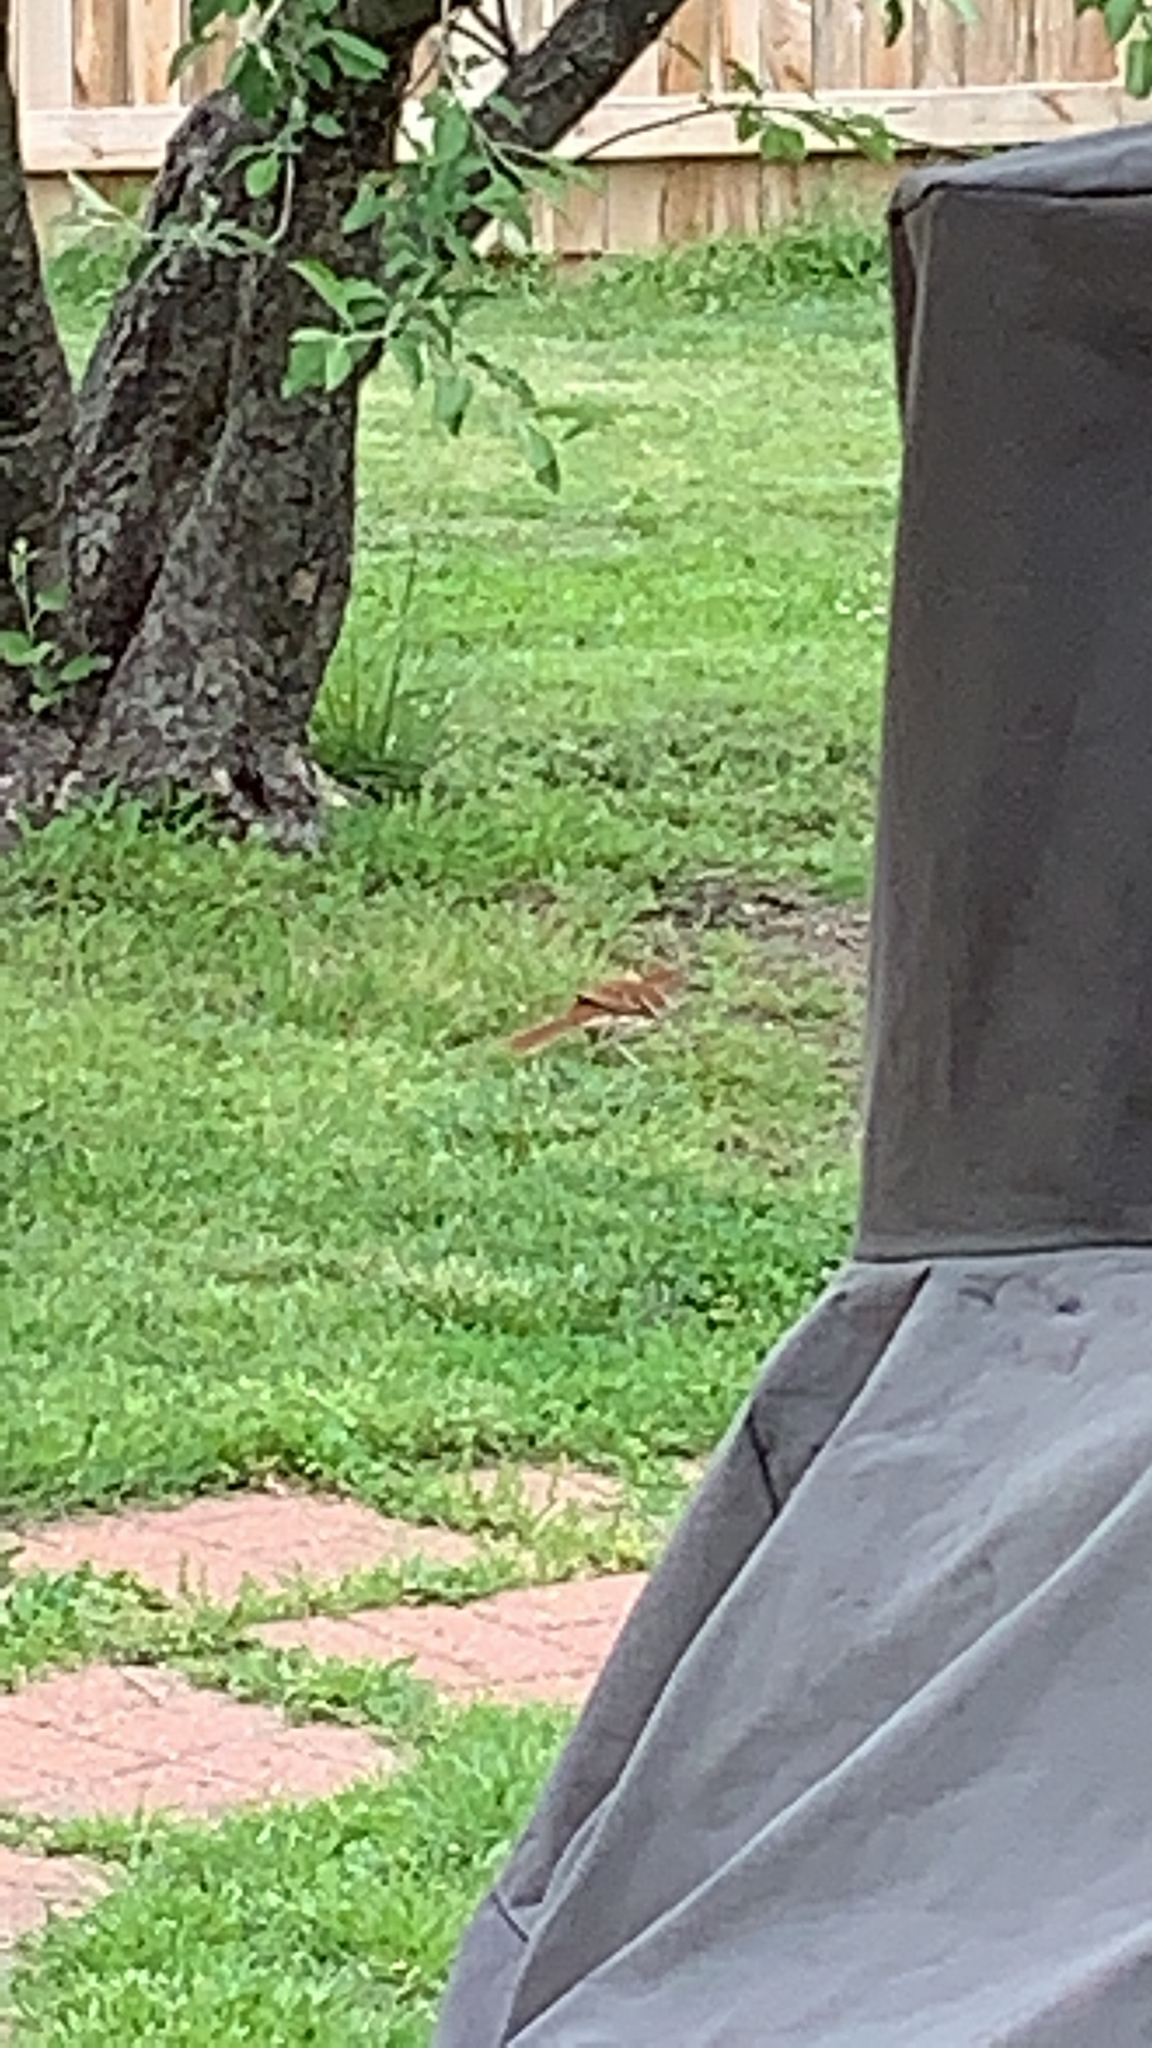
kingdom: Animalia
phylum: Chordata
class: Aves
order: Passeriformes
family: Mimidae
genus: Toxostoma
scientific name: Toxostoma rufum
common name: Brown thrasher
